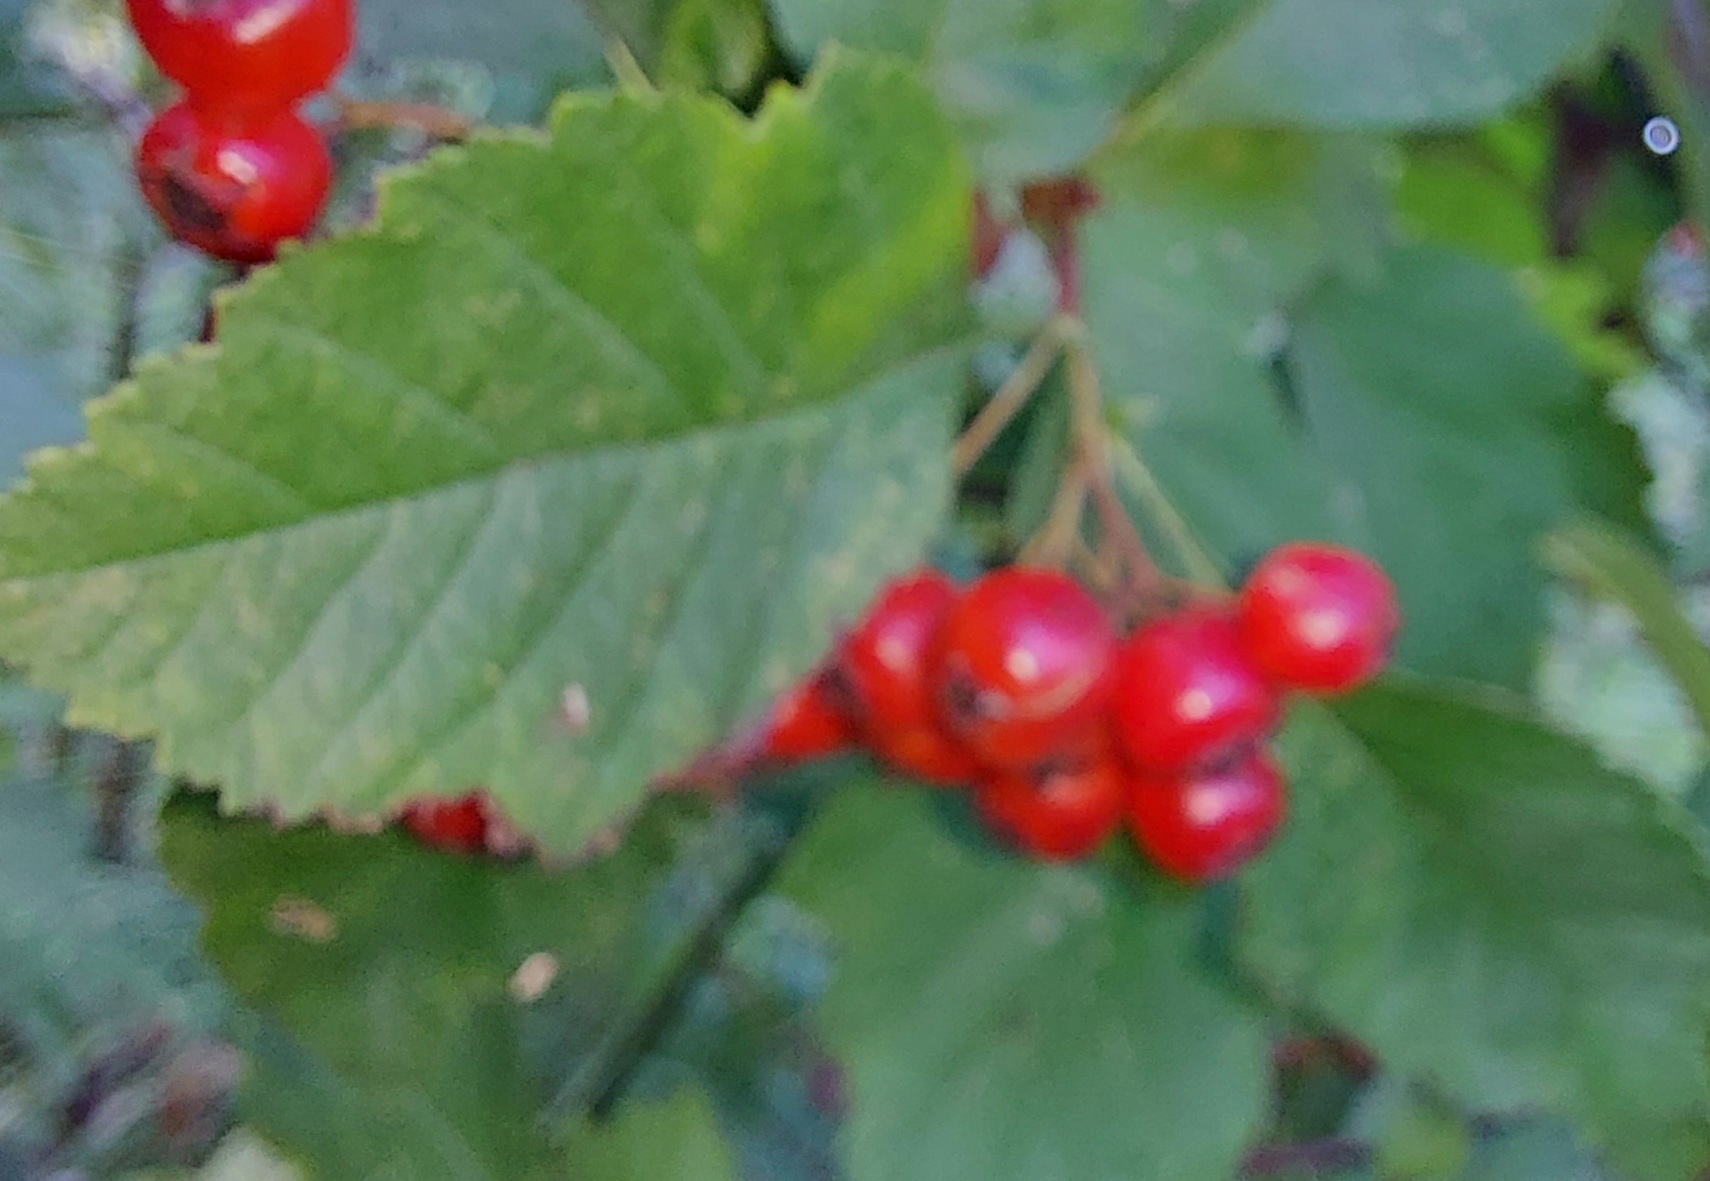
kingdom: Plantae
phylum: Tracheophyta
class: Magnoliopsida
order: Rosales
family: Rosaceae
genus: Crataegus
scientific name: Crataegus sanguinea
